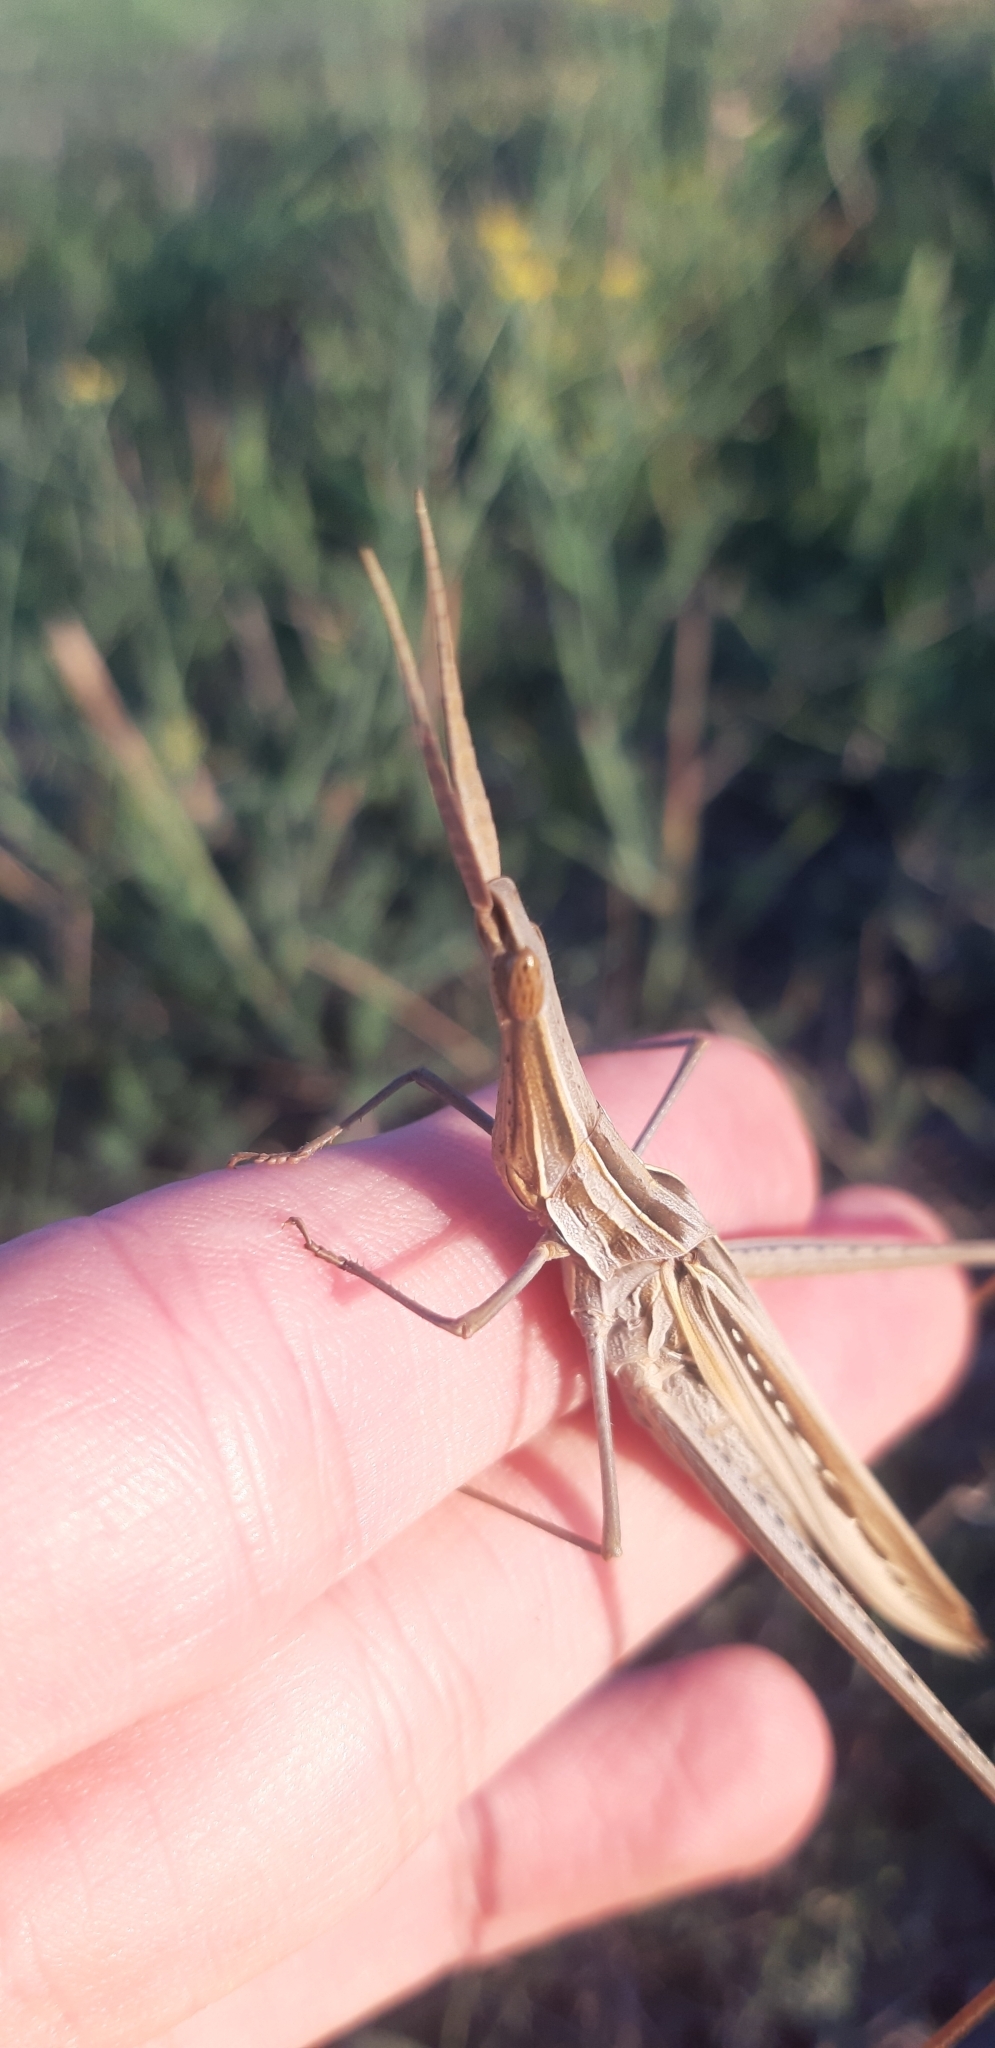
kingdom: Animalia
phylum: Arthropoda
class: Insecta
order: Orthoptera
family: Acrididae
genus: Acrida
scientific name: Acrida ungarica
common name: Common cone-headed grasshopper
